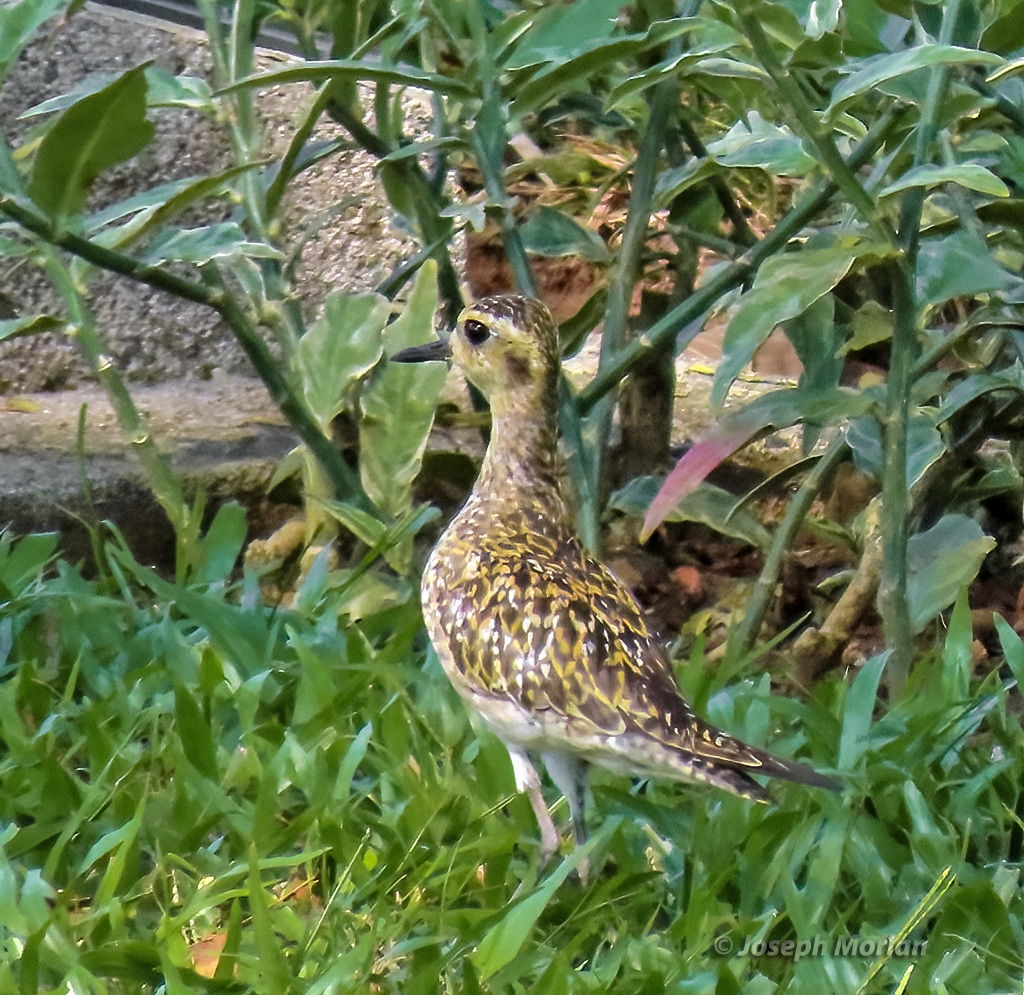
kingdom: Animalia
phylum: Chordata
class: Aves
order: Charadriiformes
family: Charadriidae
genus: Pluvialis
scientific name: Pluvialis fulva
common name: Pacific golden plover
